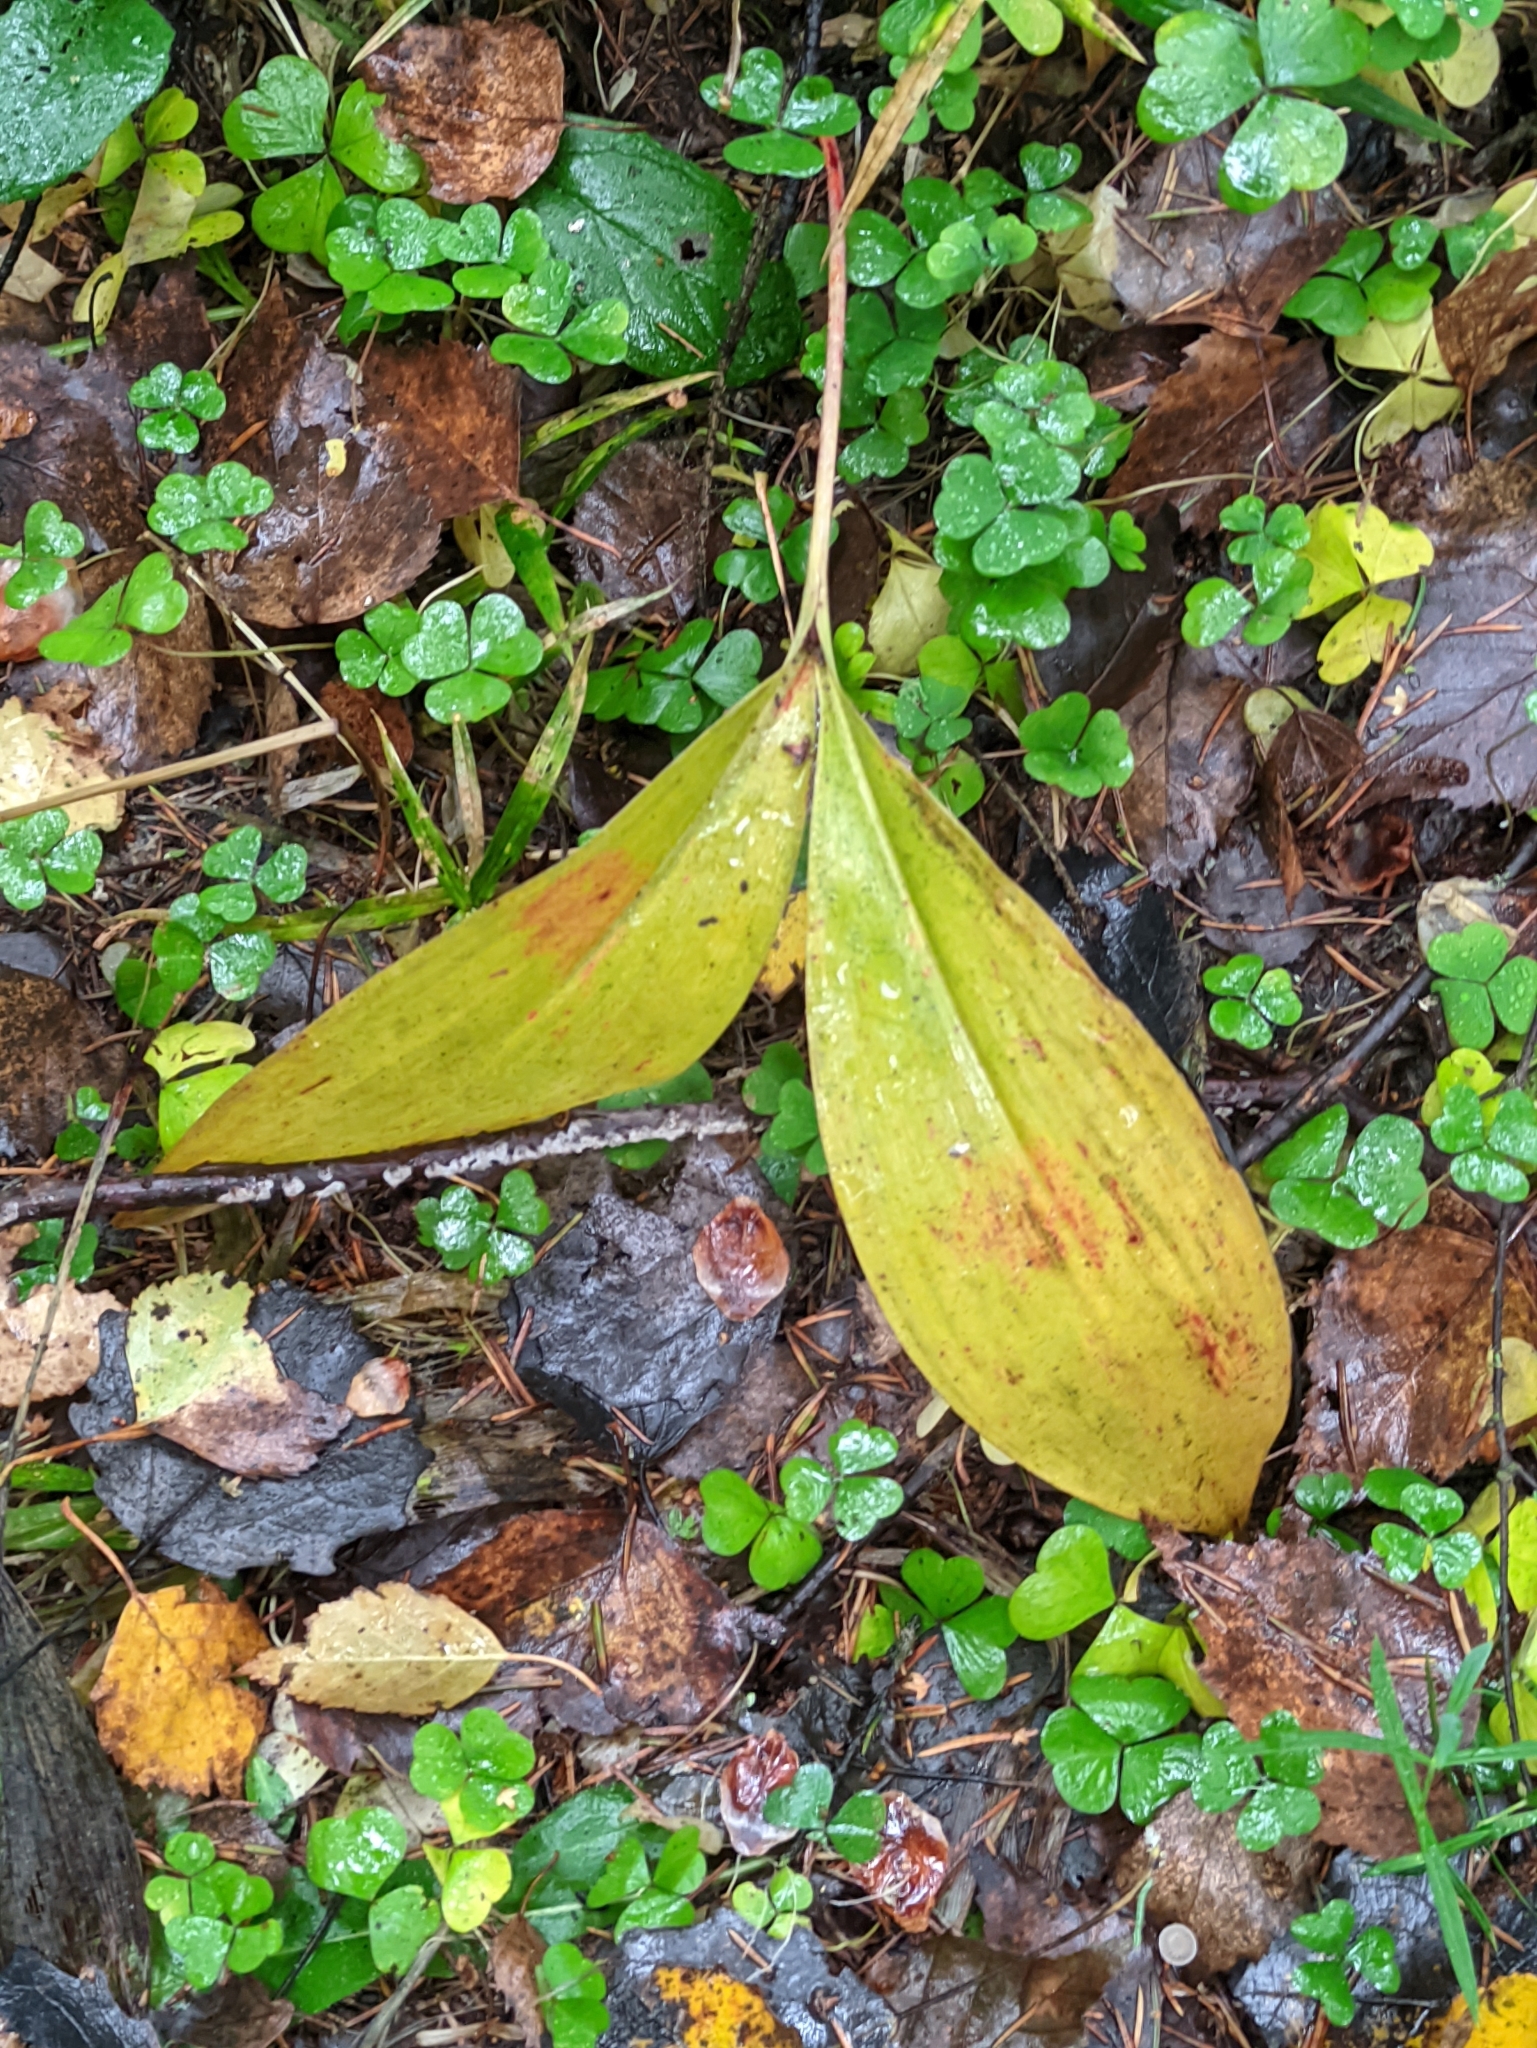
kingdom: Plantae
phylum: Tracheophyta
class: Liliopsida
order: Asparagales
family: Asparagaceae
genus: Convallaria
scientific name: Convallaria majalis
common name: Lily-of-the-valley
